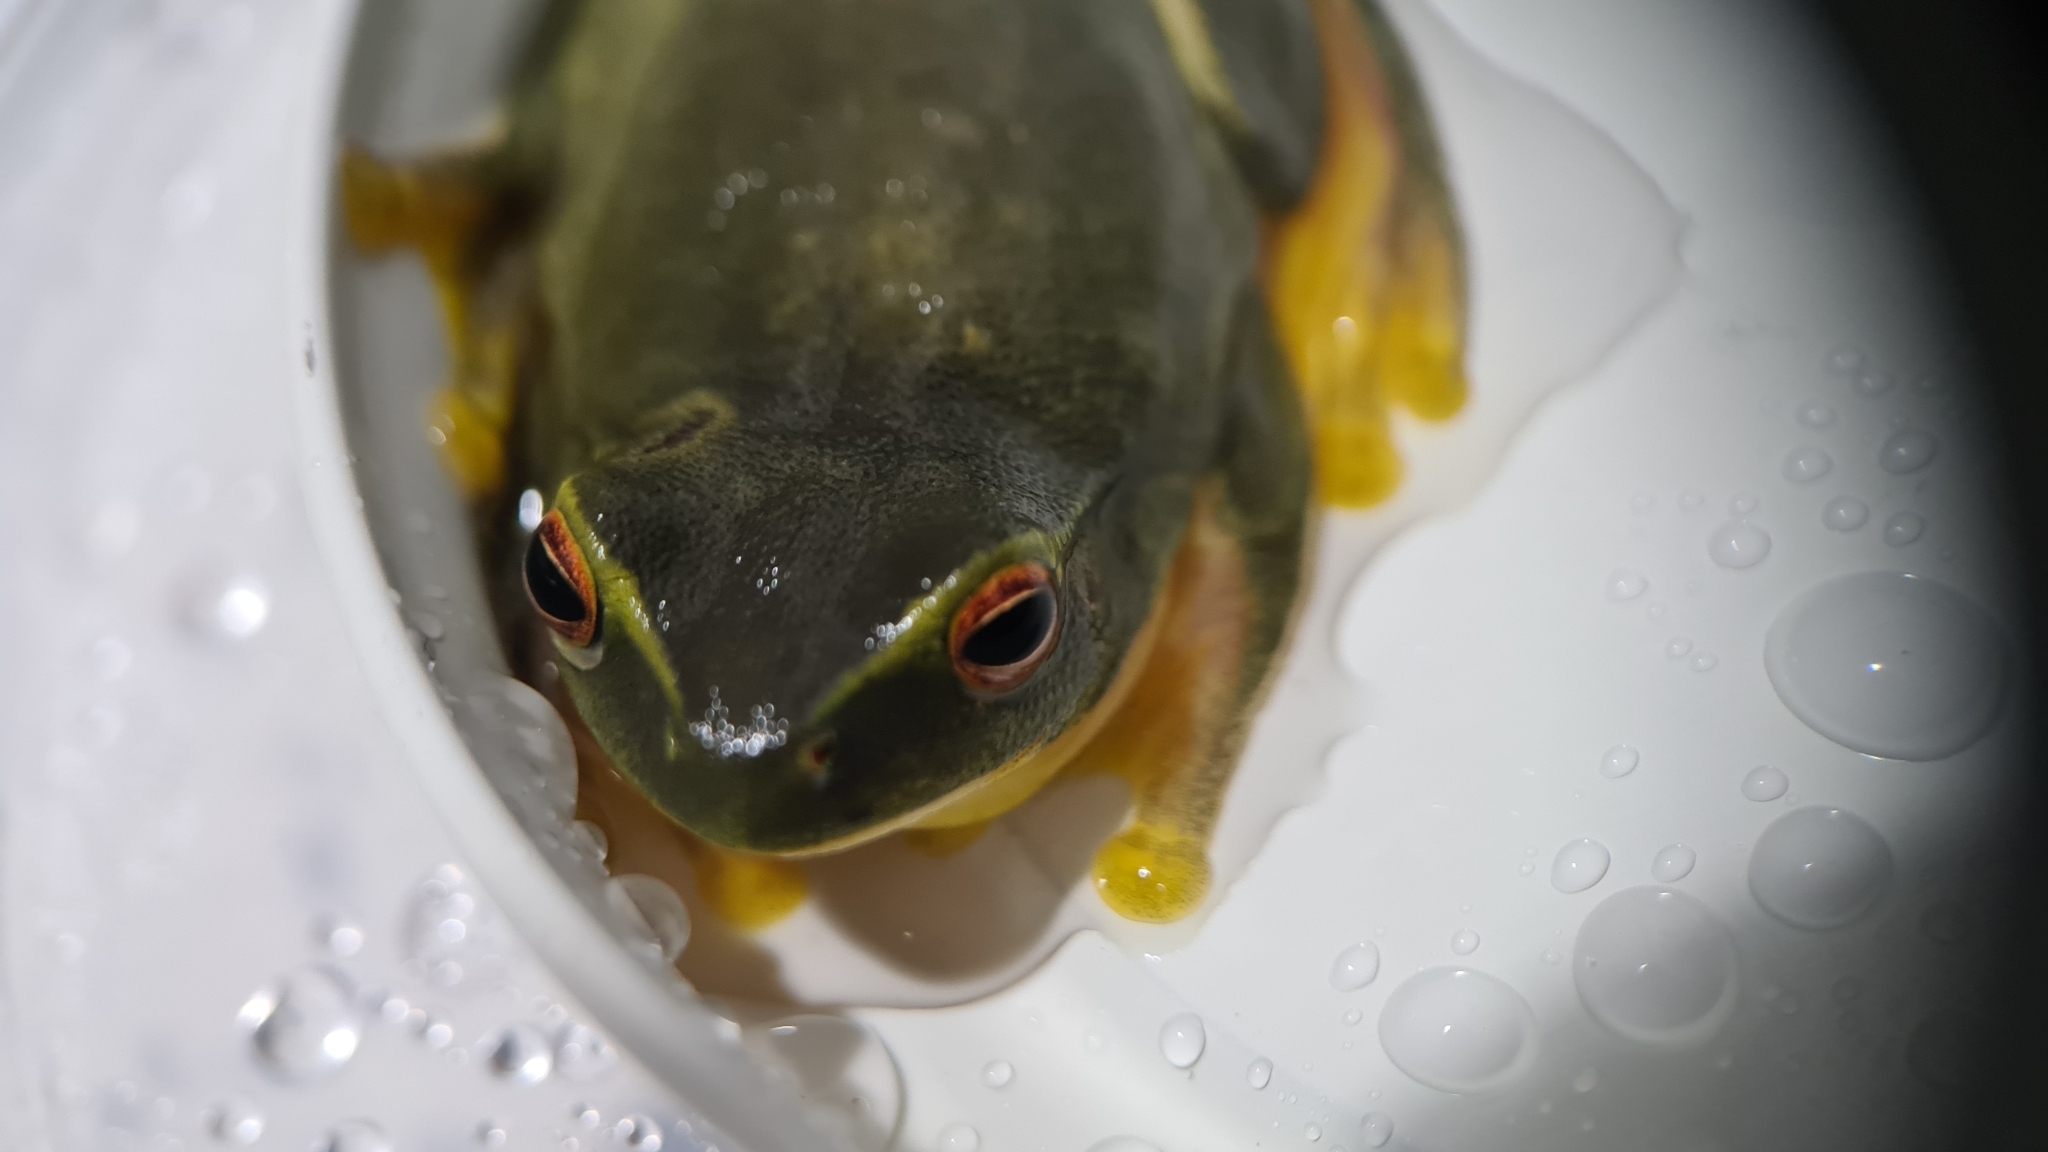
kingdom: Animalia
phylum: Chordata
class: Amphibia
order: Anura
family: Pelodryadidae
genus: Ranoidea
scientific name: Ranoidea gracilenta
